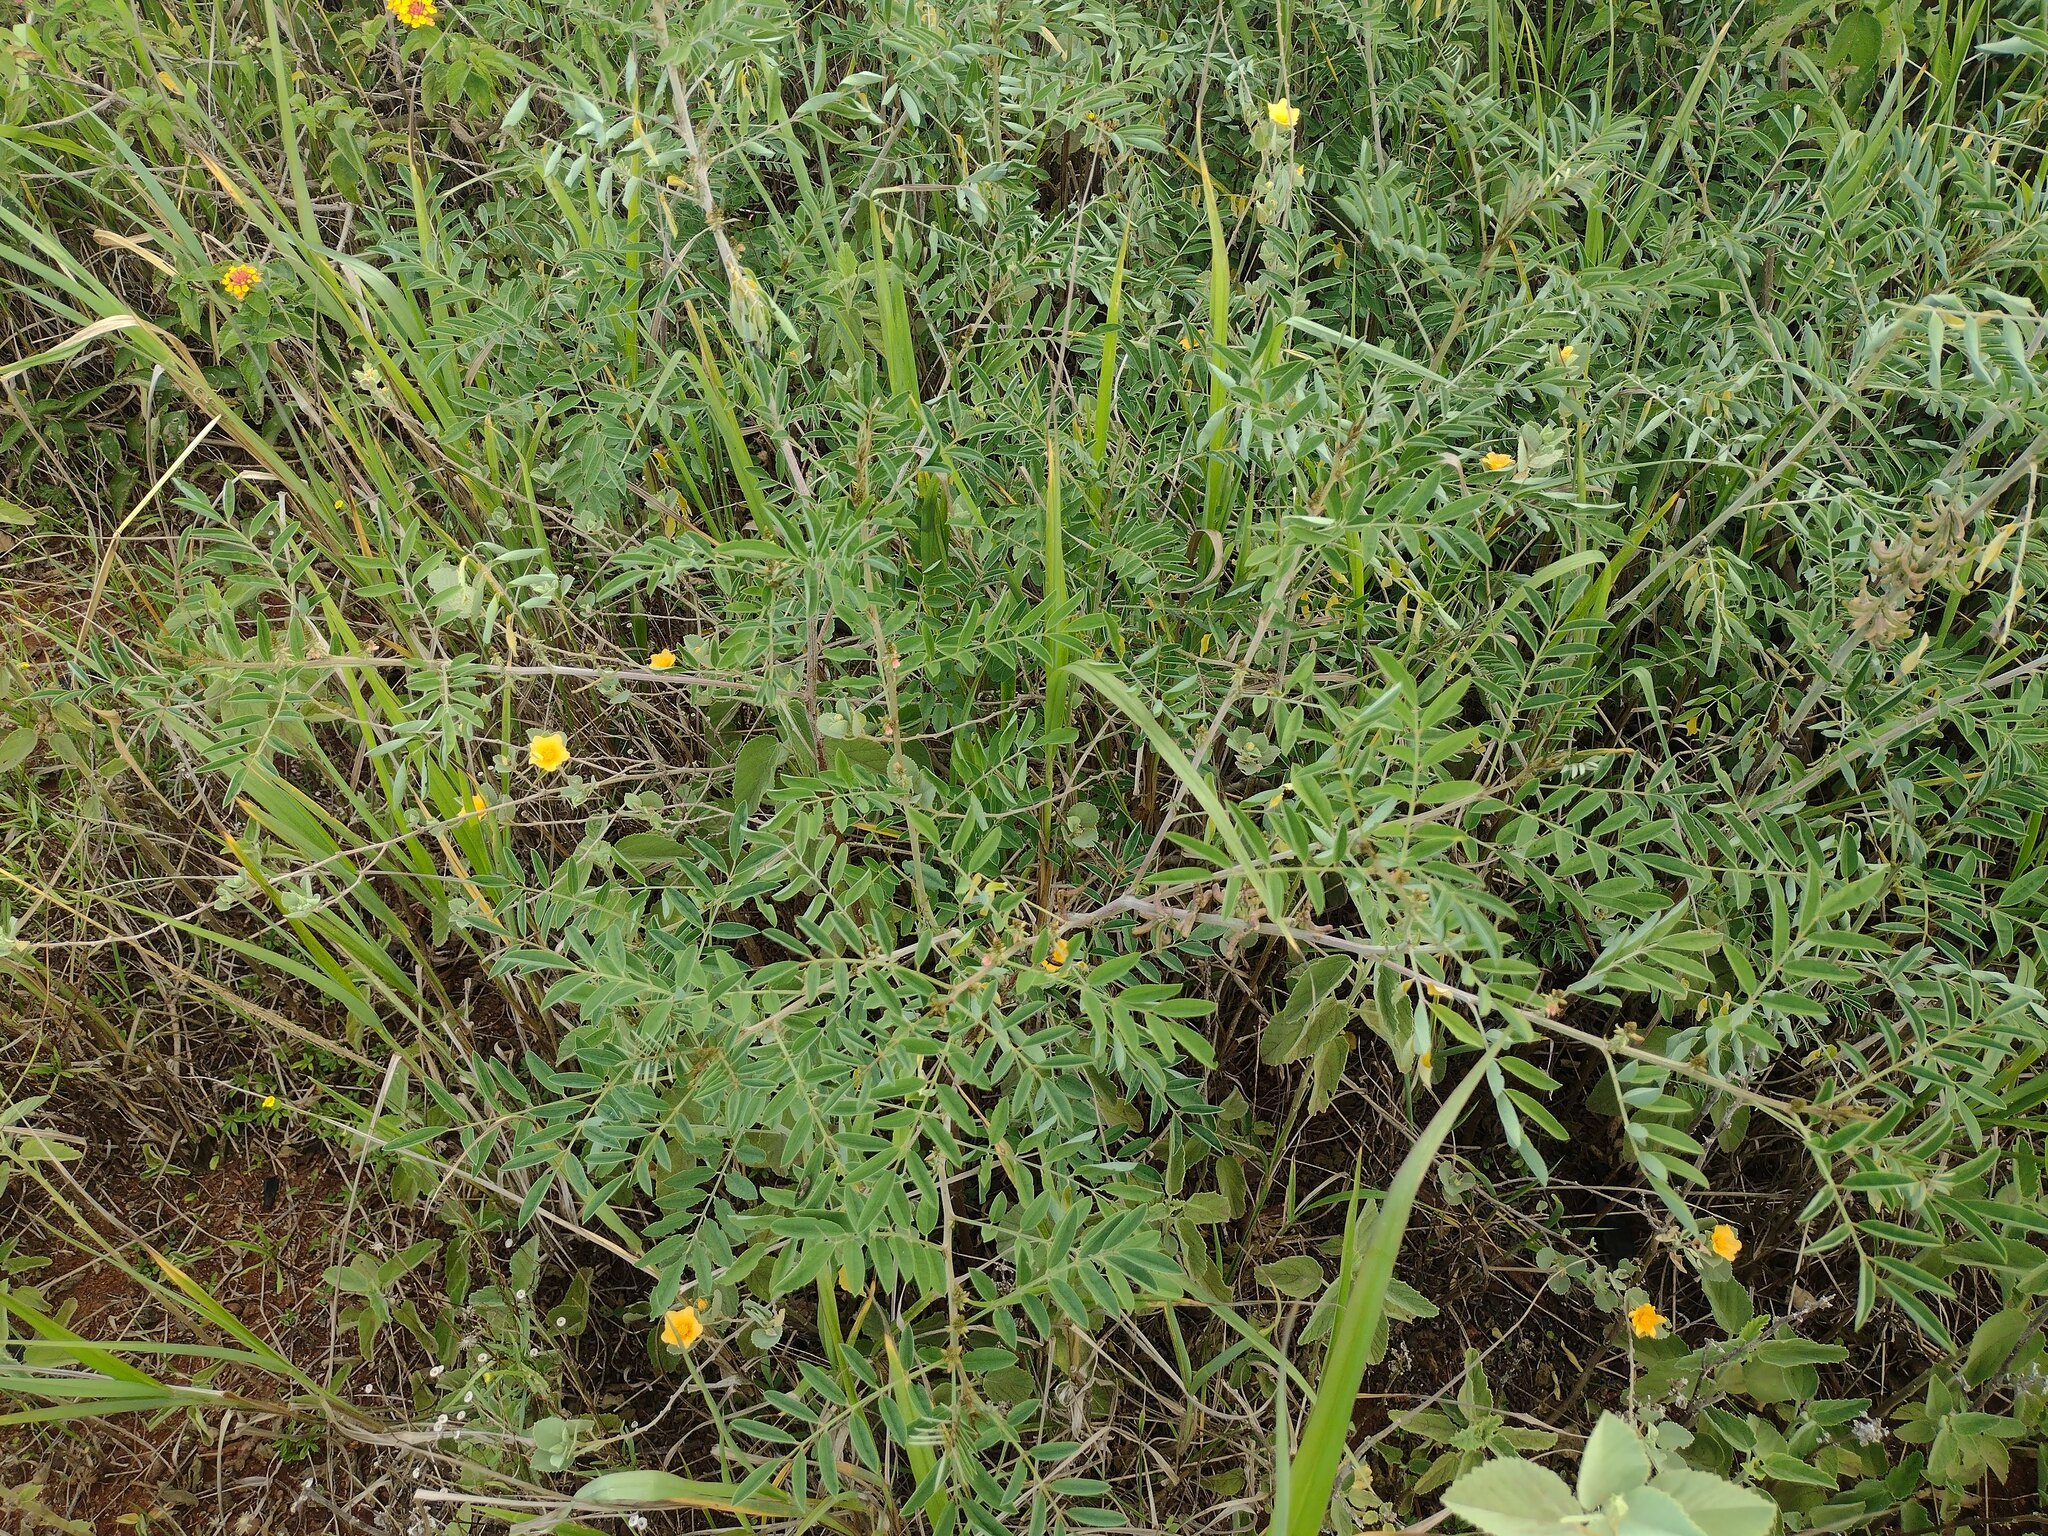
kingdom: Plantae
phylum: Tracheophyta
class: Magnoliopsida
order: Fabales
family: Fabaceae
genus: Indigofera
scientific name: Indigofera suffruticosa
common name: Anil de pasto
